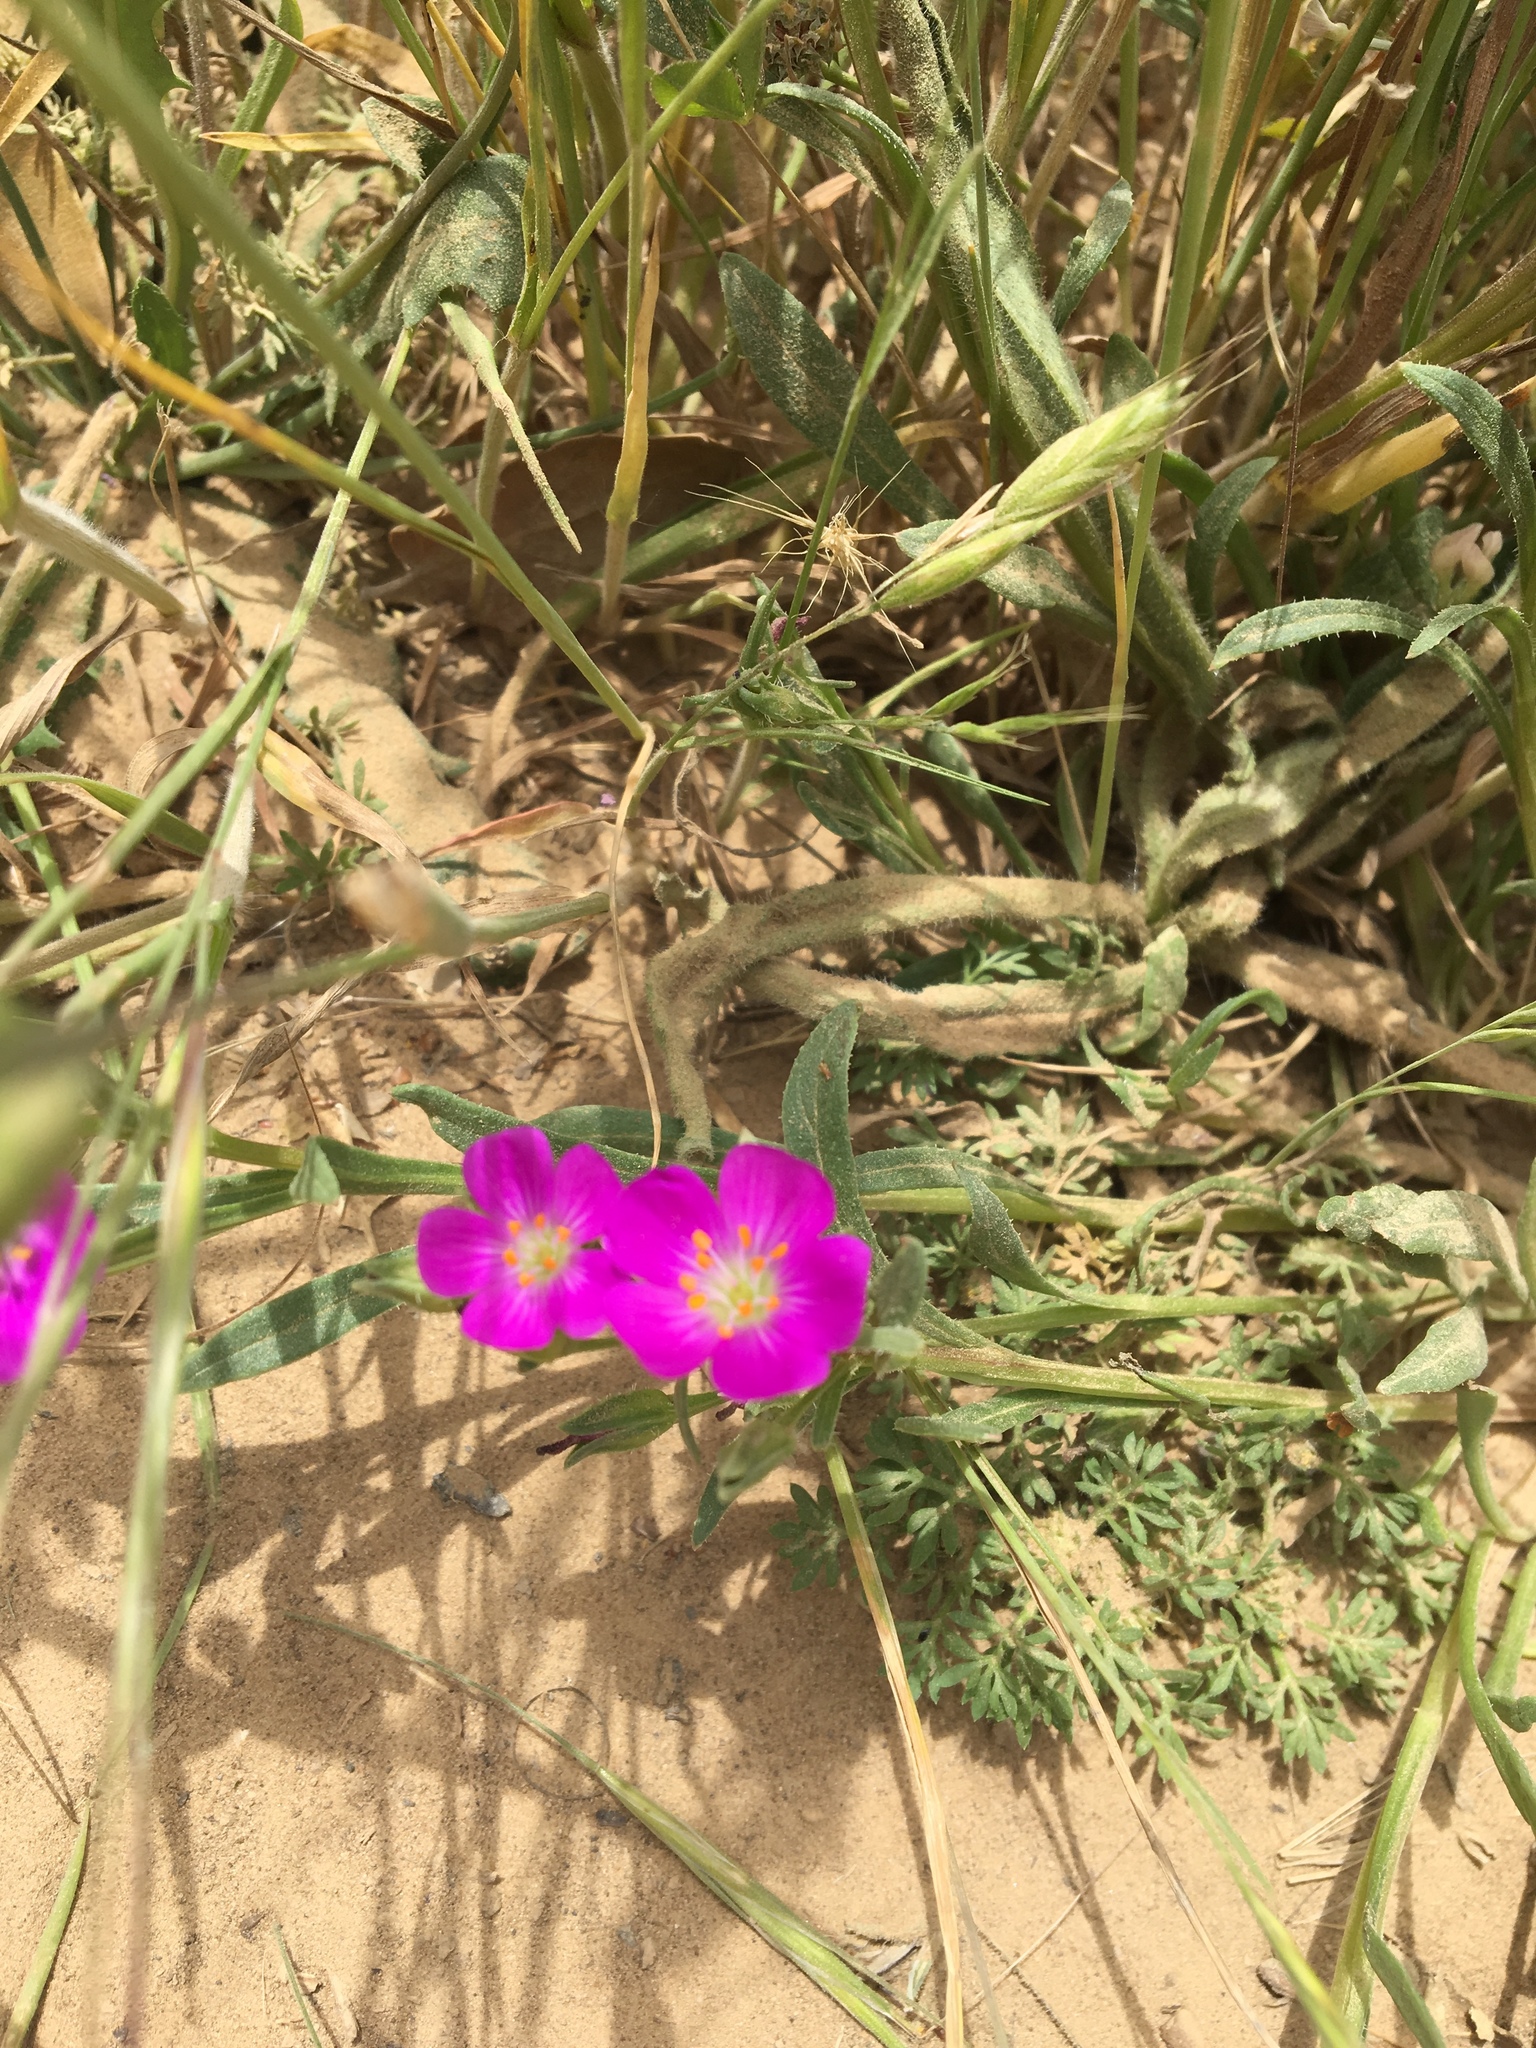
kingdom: Plantae
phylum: Tracheophyta
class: Magnoliopsida
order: Caryophyllales
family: Montiaceae
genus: Calandrinia
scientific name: Calandrinia menziesii
